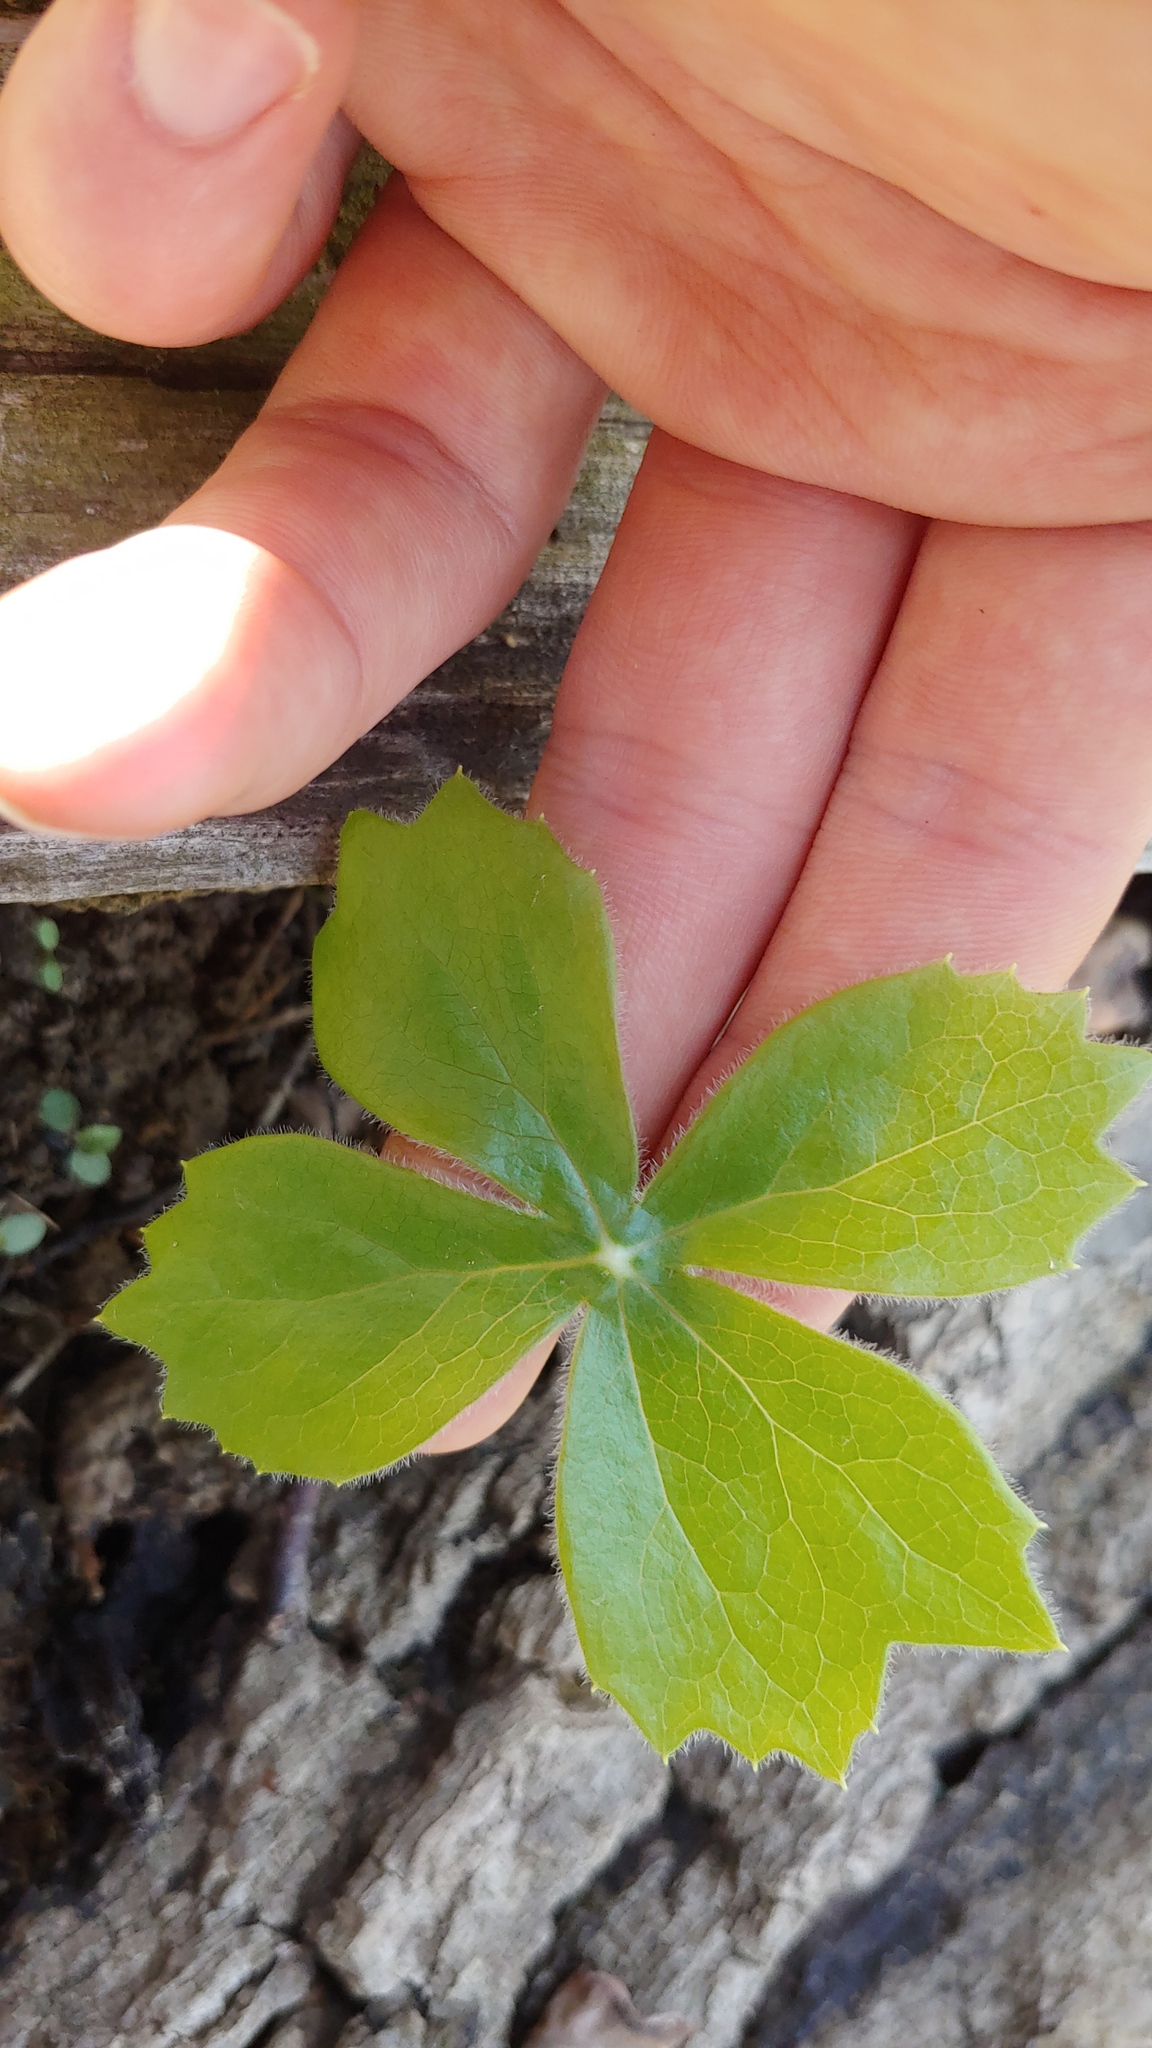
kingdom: Plantae
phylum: Tracheophyta
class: Magnoliopsida
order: Ranunculales
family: Berberidaceae
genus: Podophyllum
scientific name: Podophyllum peltatum
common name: Wild mandrake
